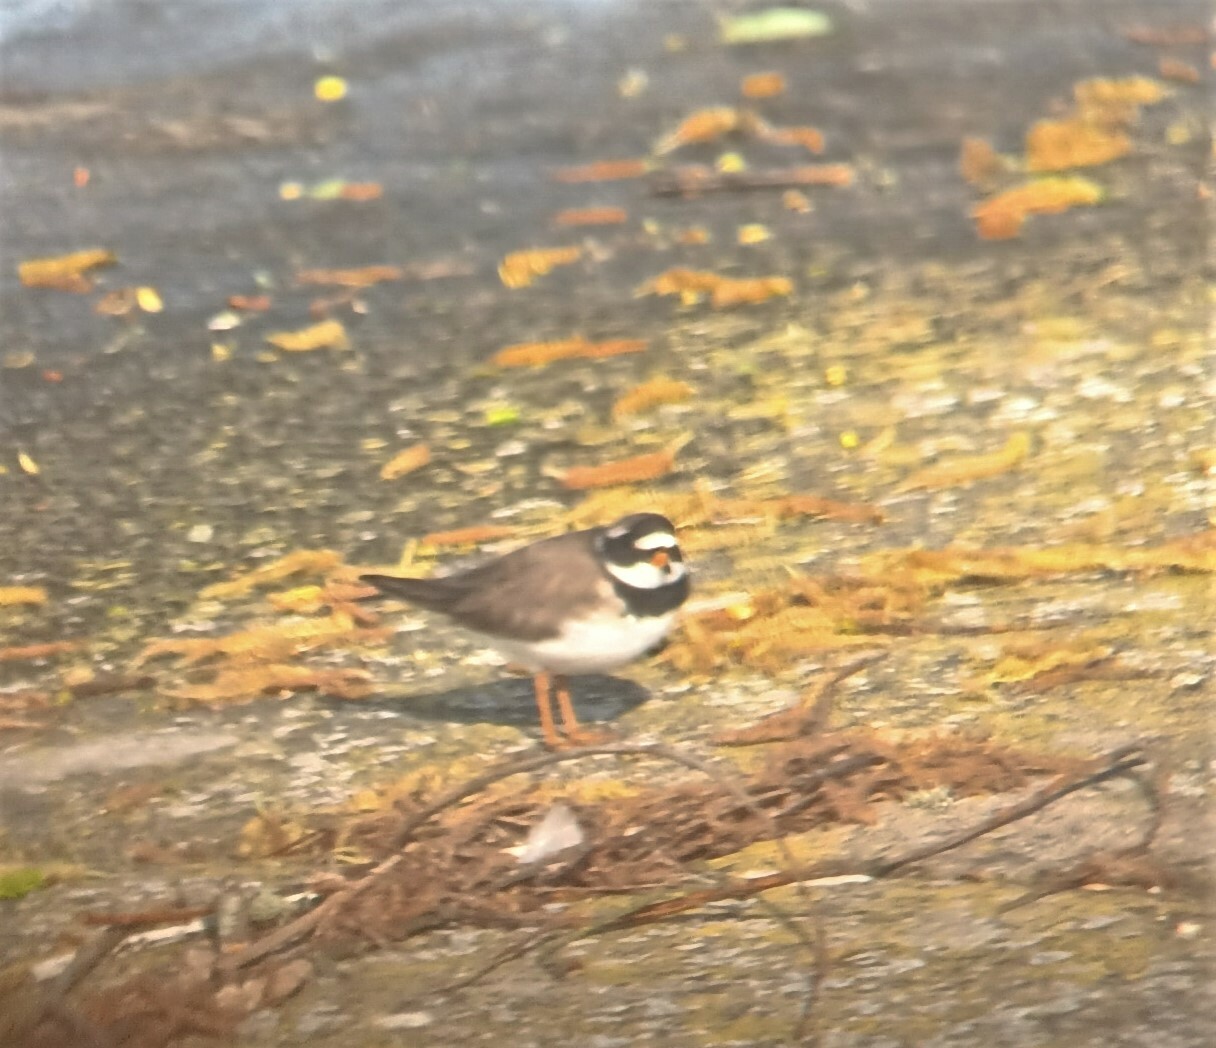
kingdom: Animalia
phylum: Chordata
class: Aves
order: Charadriiformes
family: Charadriidae
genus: Charadrius
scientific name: Charadrius hiaticula
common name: Common ringed plover
